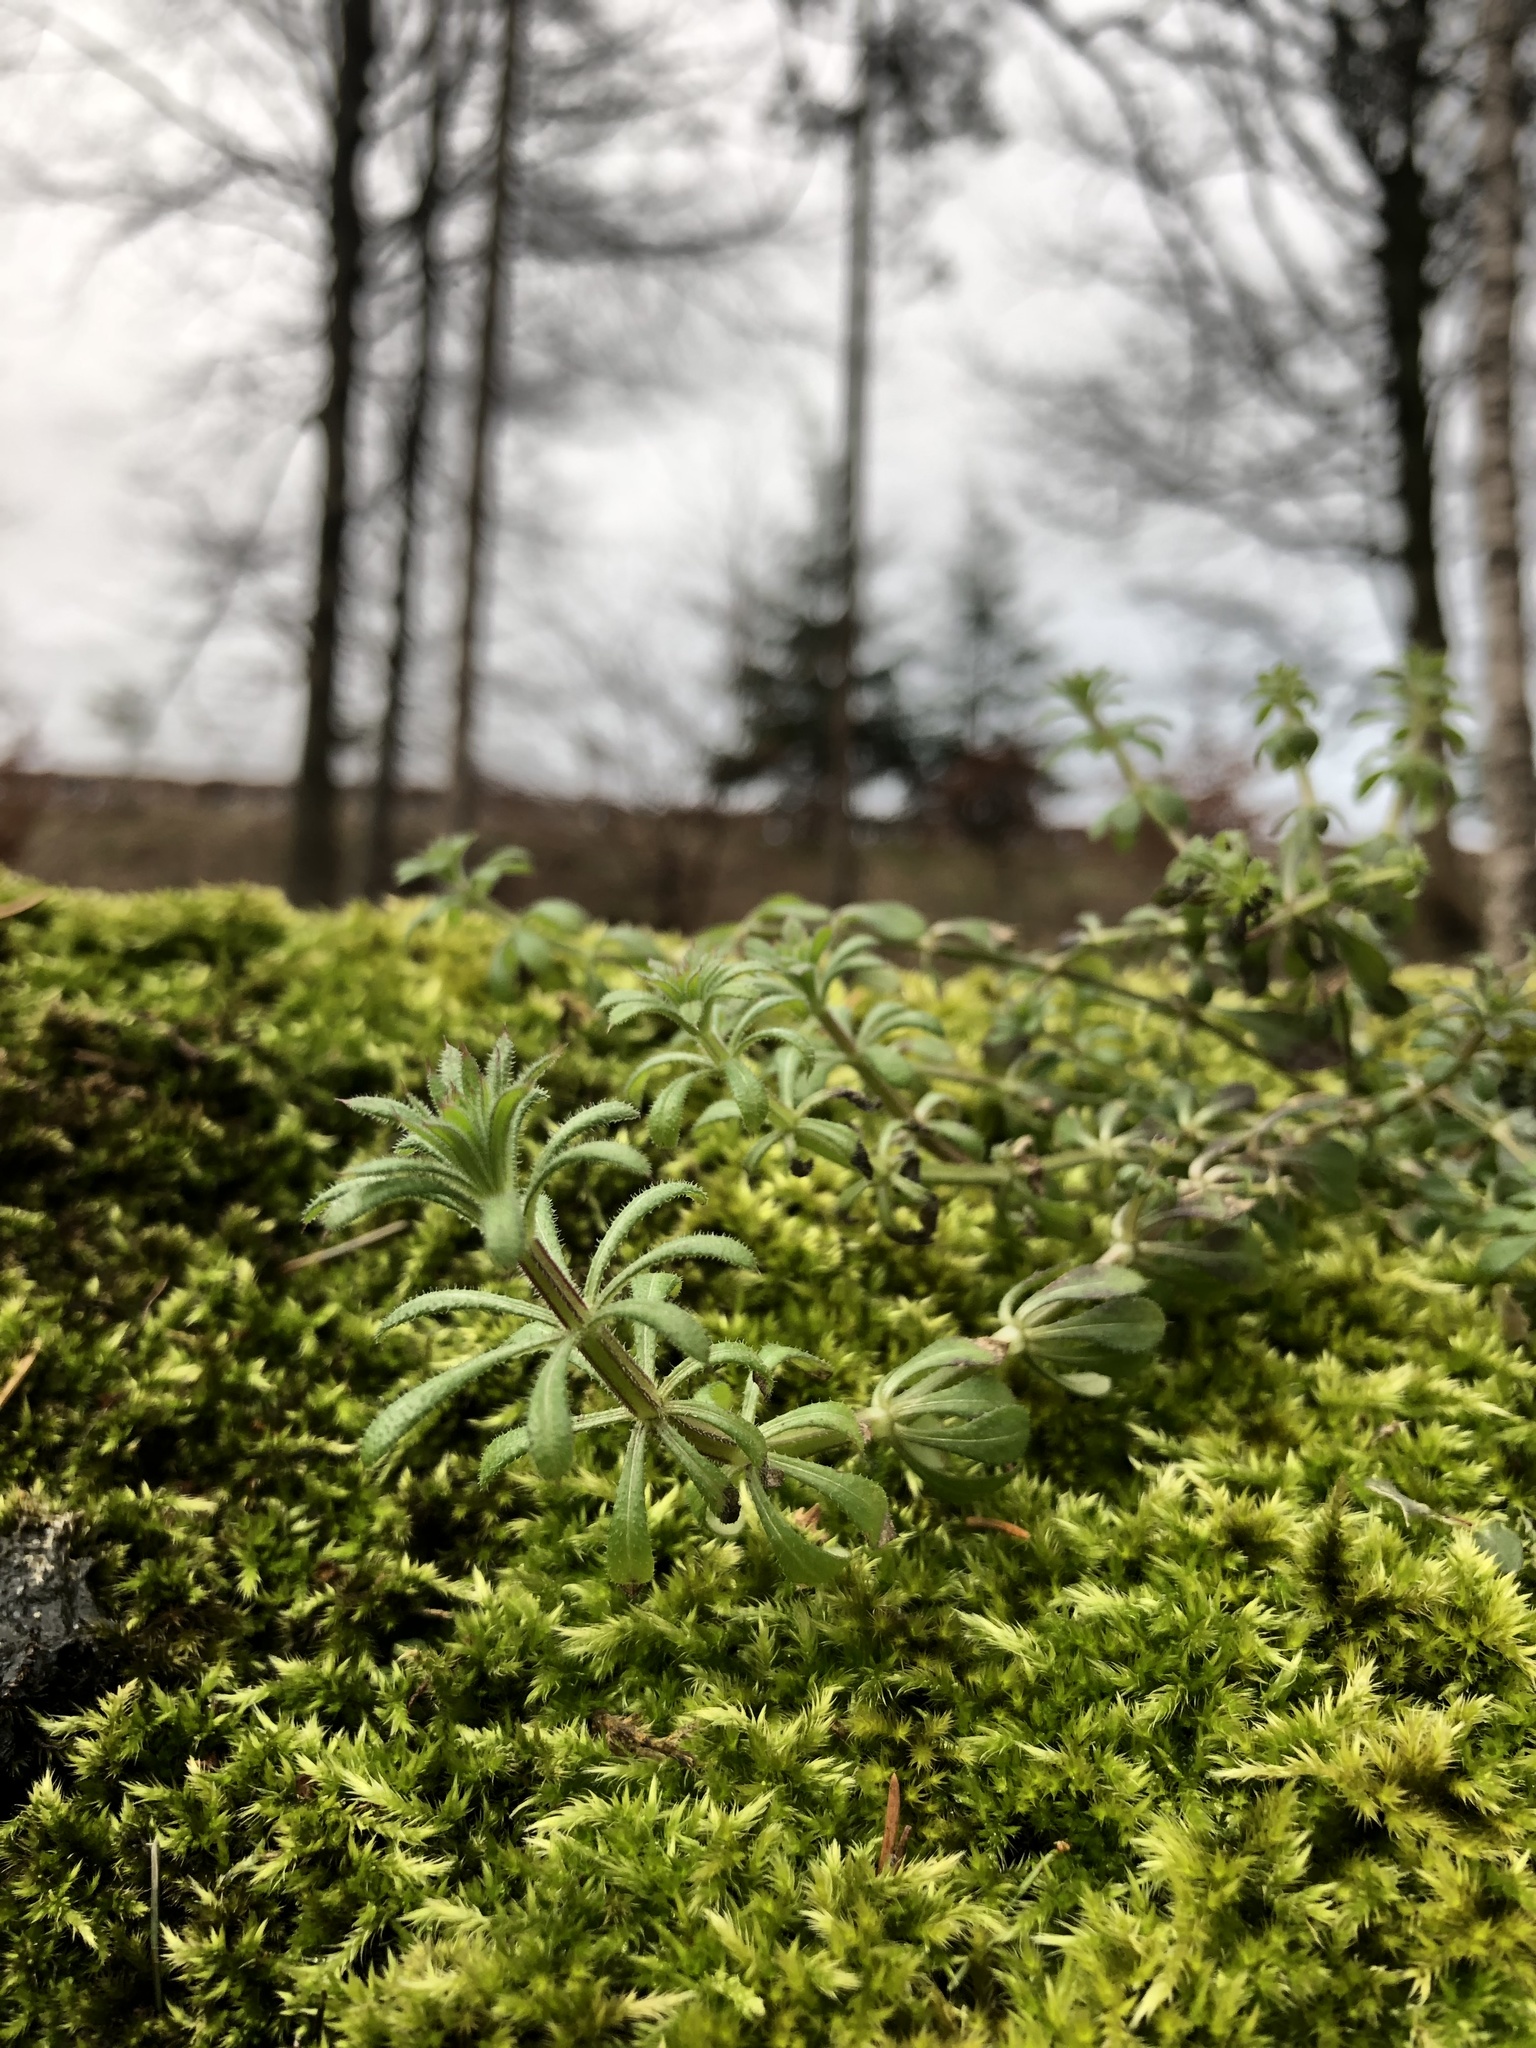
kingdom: Plantae
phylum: Tracheophyta
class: Magnoliopsida
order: Gentianales
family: Rubiaceae
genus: Galium
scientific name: Galium aparine
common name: Cleavers
